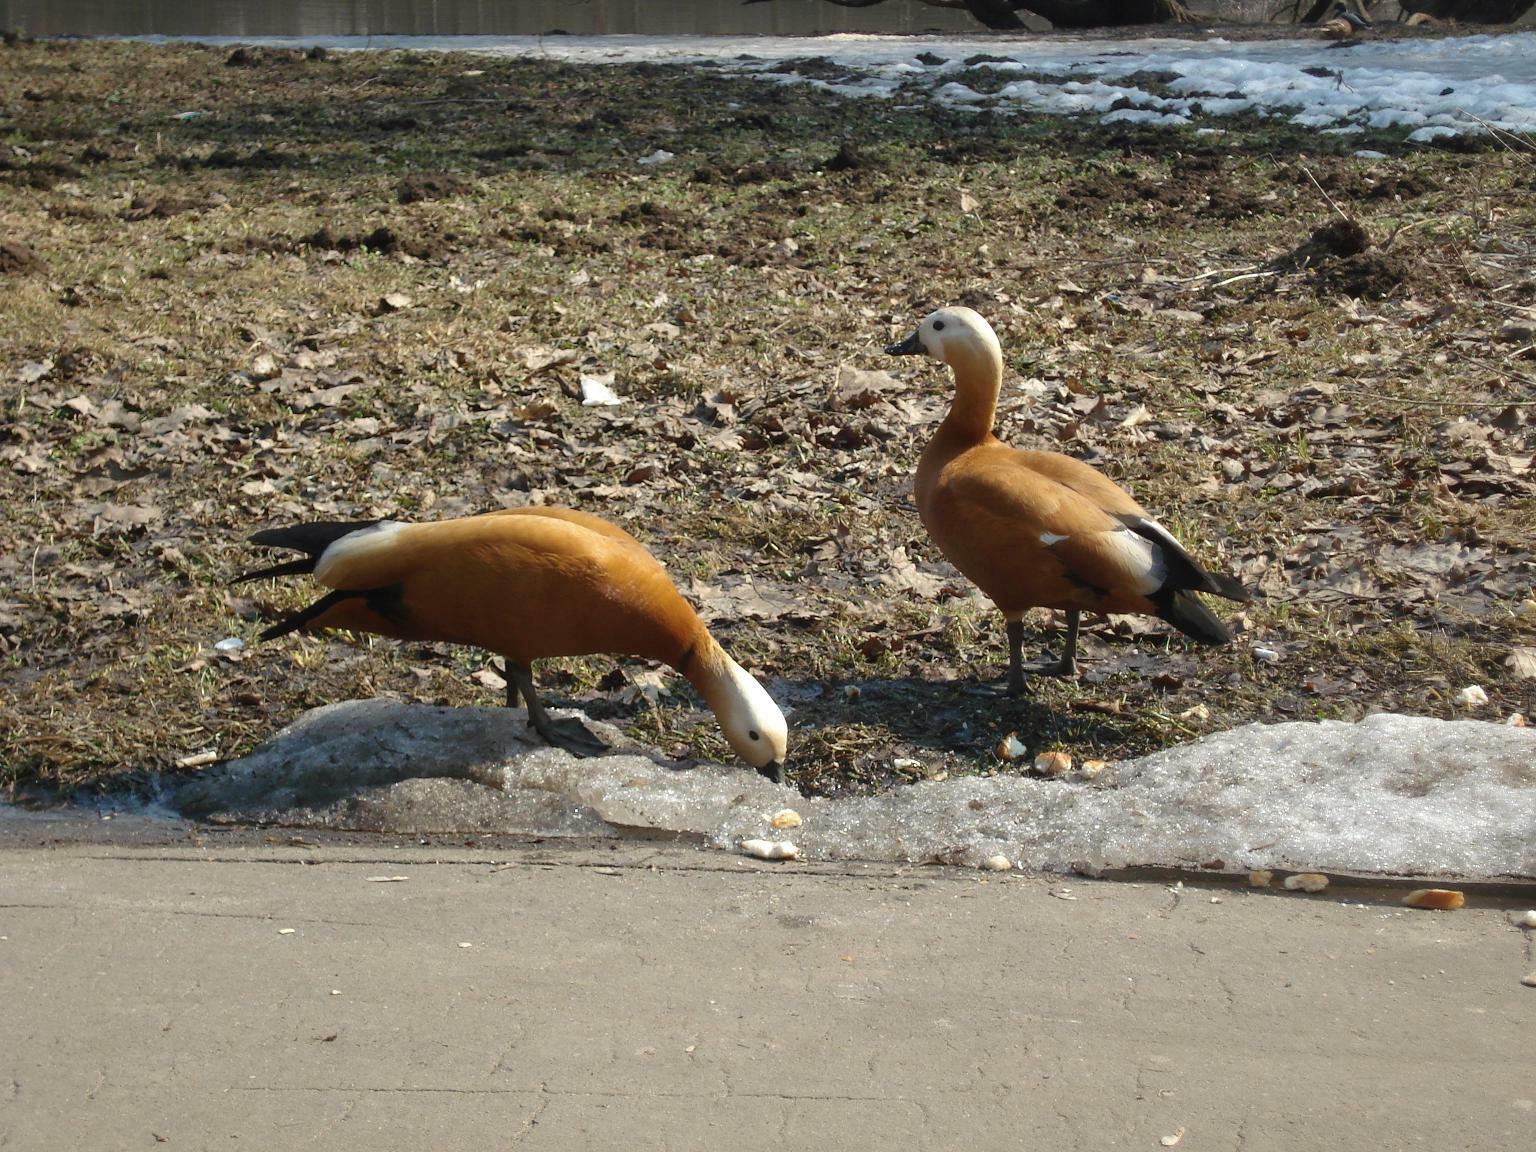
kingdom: Animalia
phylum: Chordata
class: Aves
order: Anseriformes
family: Anatidae
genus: Tadorna
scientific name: Tadorna ferruginea
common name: Ruddy shelduck
